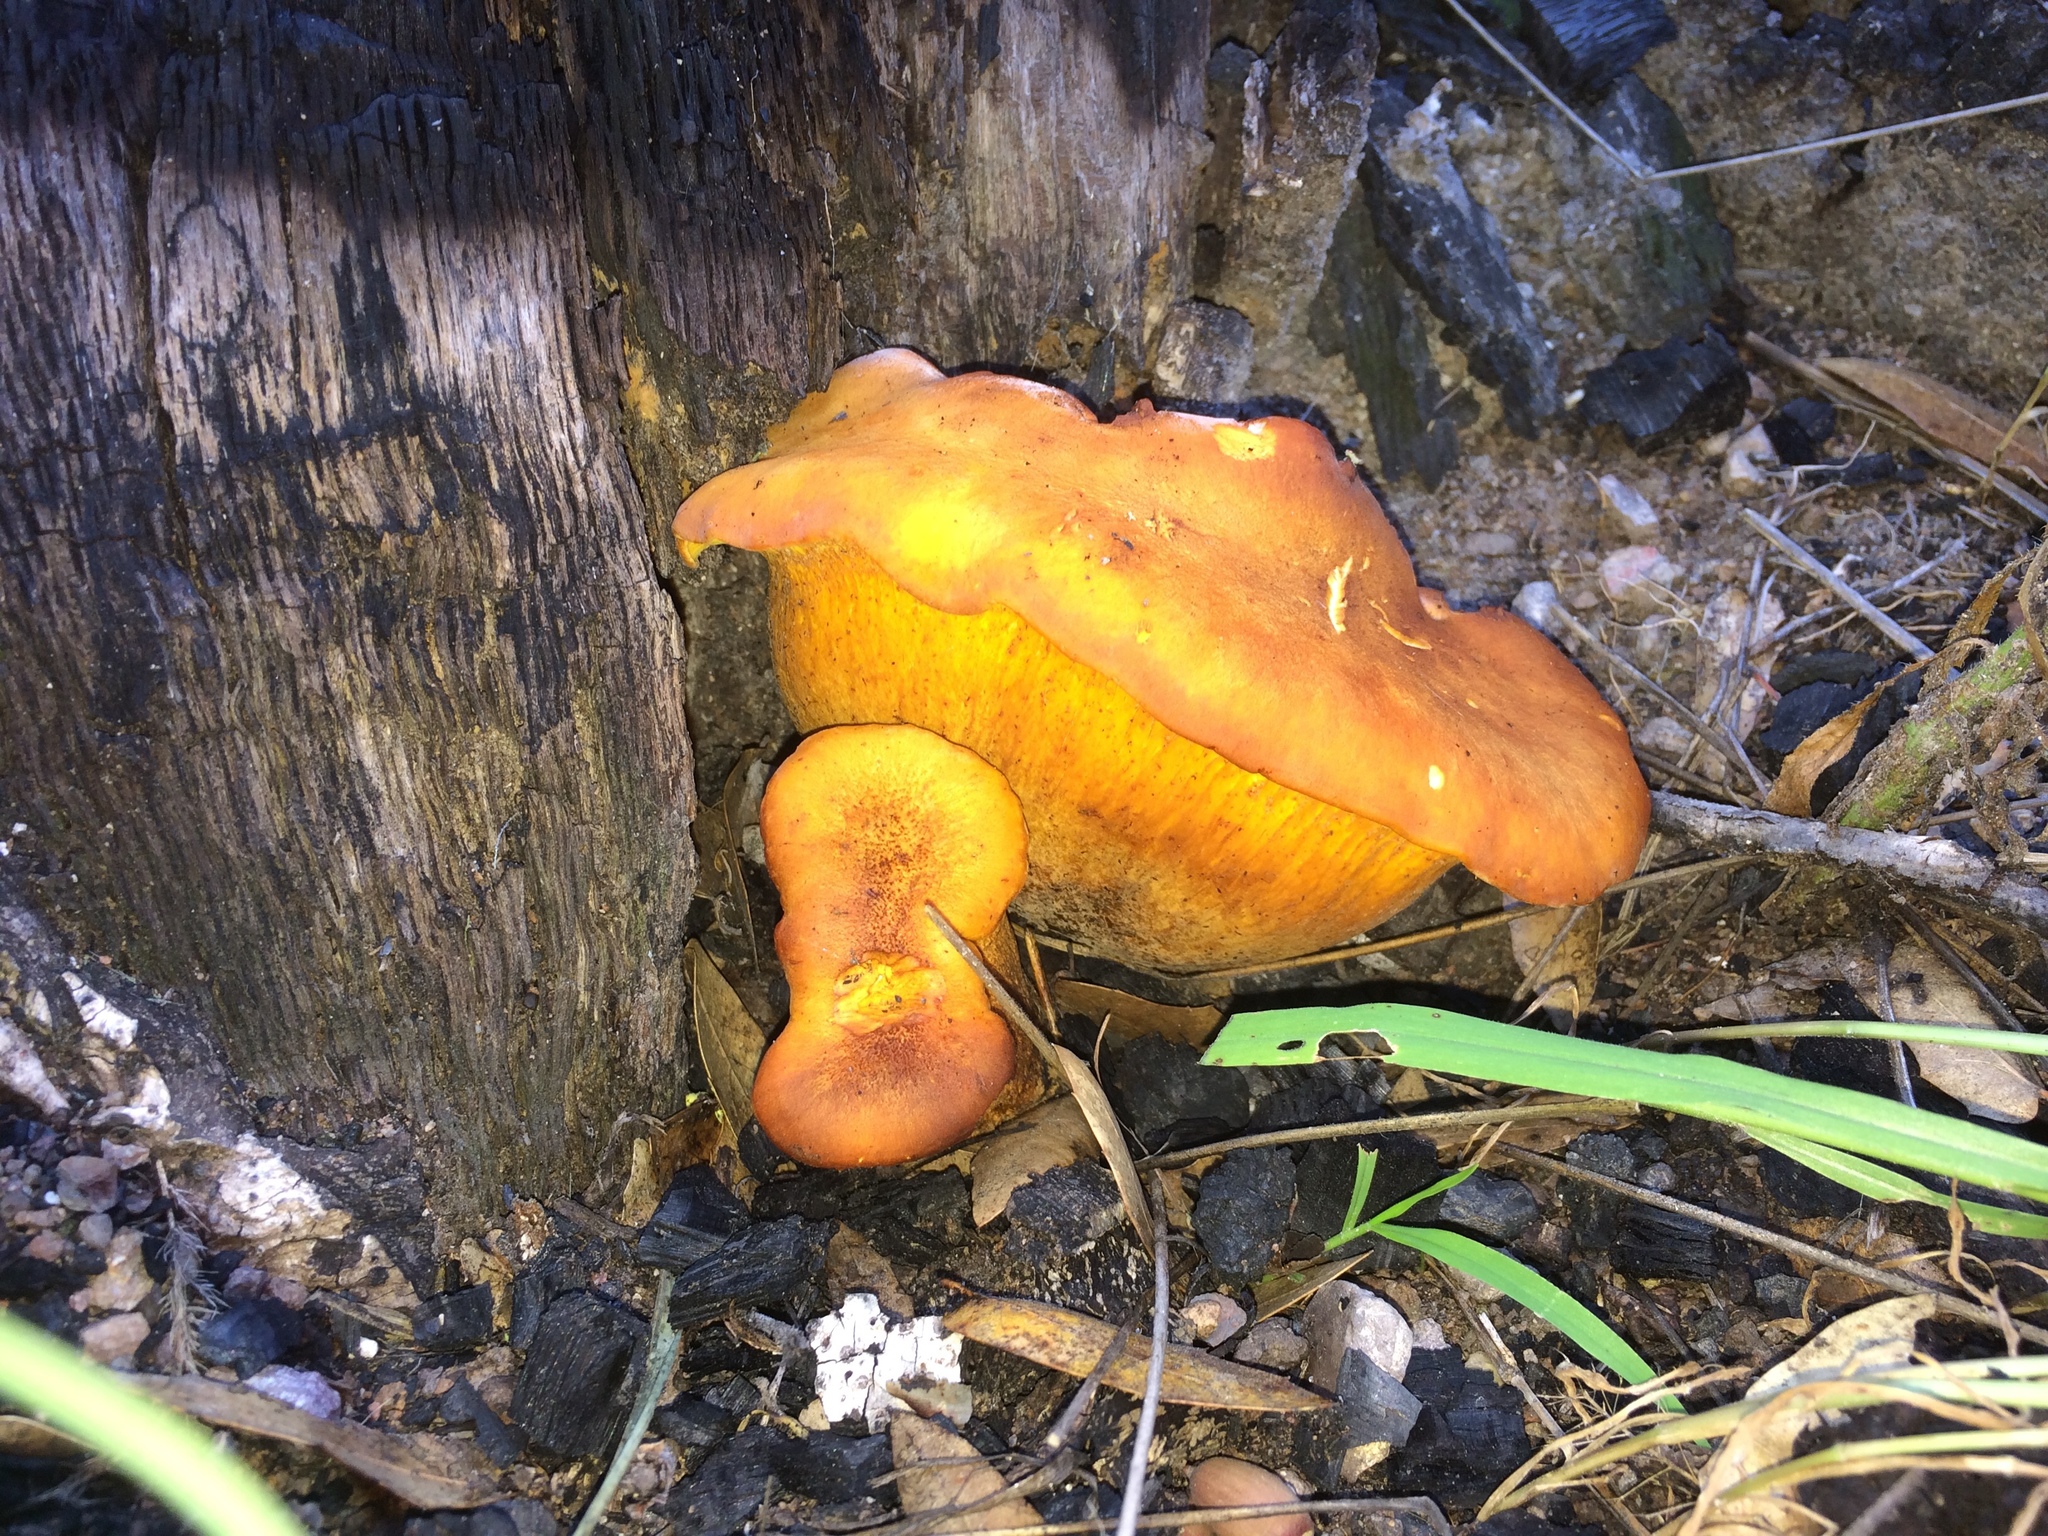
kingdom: Fungi
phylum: Basidiomycota
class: Agaricomycetes
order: Agaricales
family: Omphalotaceae
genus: Omphalotus
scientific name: Omphalotus subilludens
